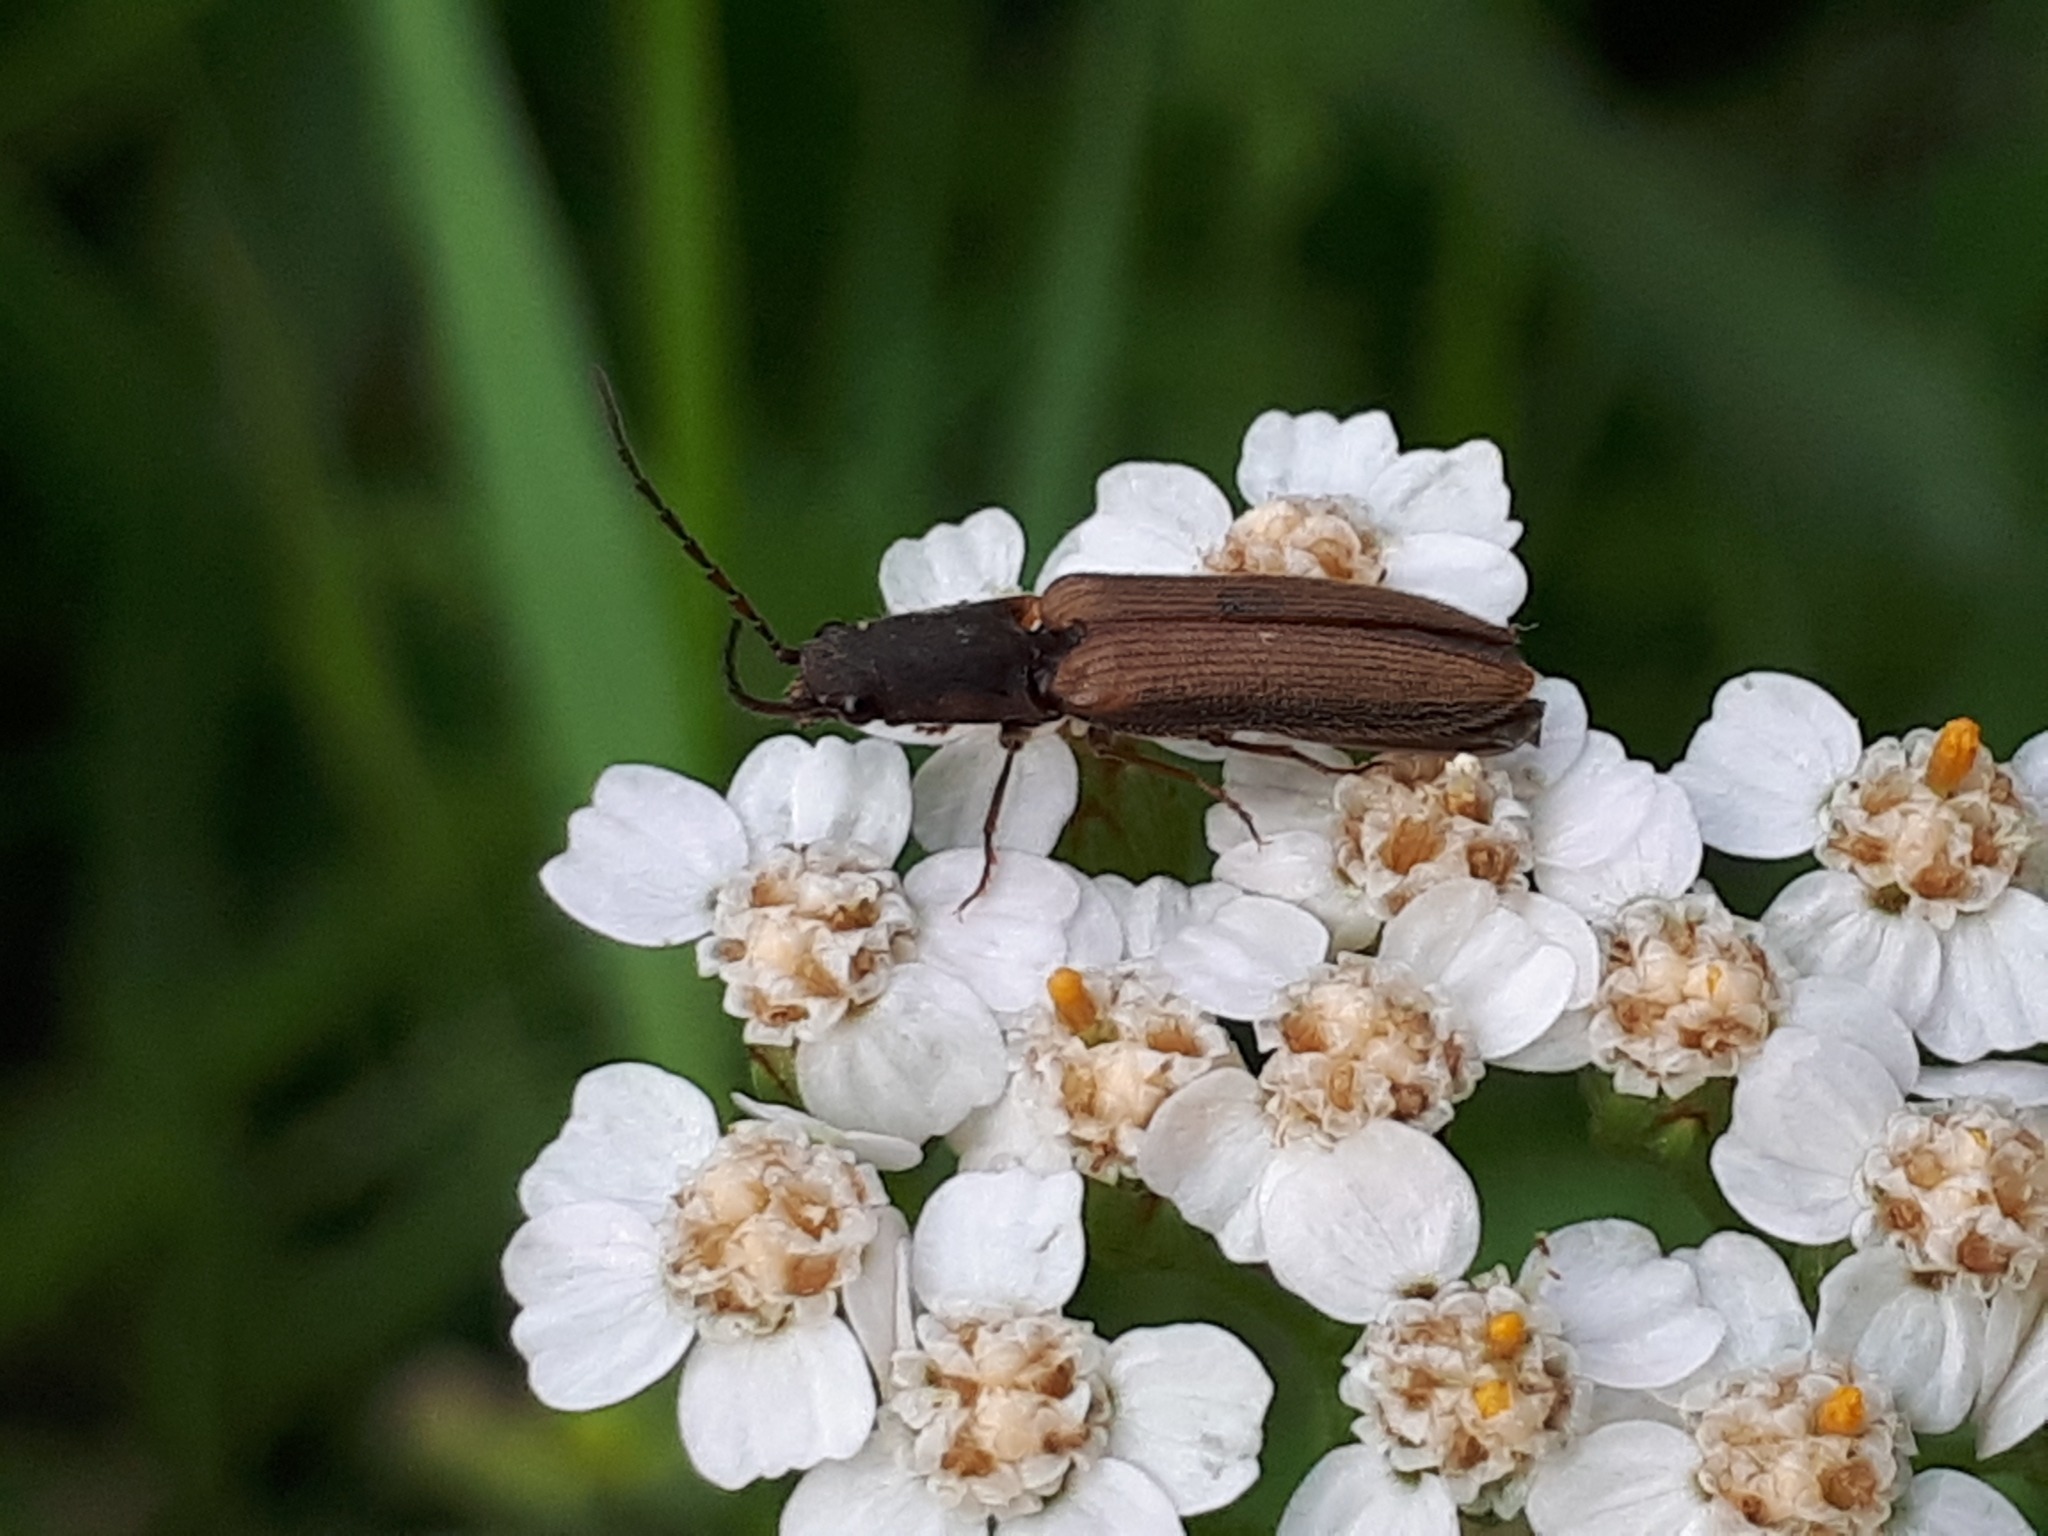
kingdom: Animalia
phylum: Arthropoda
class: Insecta
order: Coleoptera
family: Elateridae
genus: Athous
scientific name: Athous bicolor
